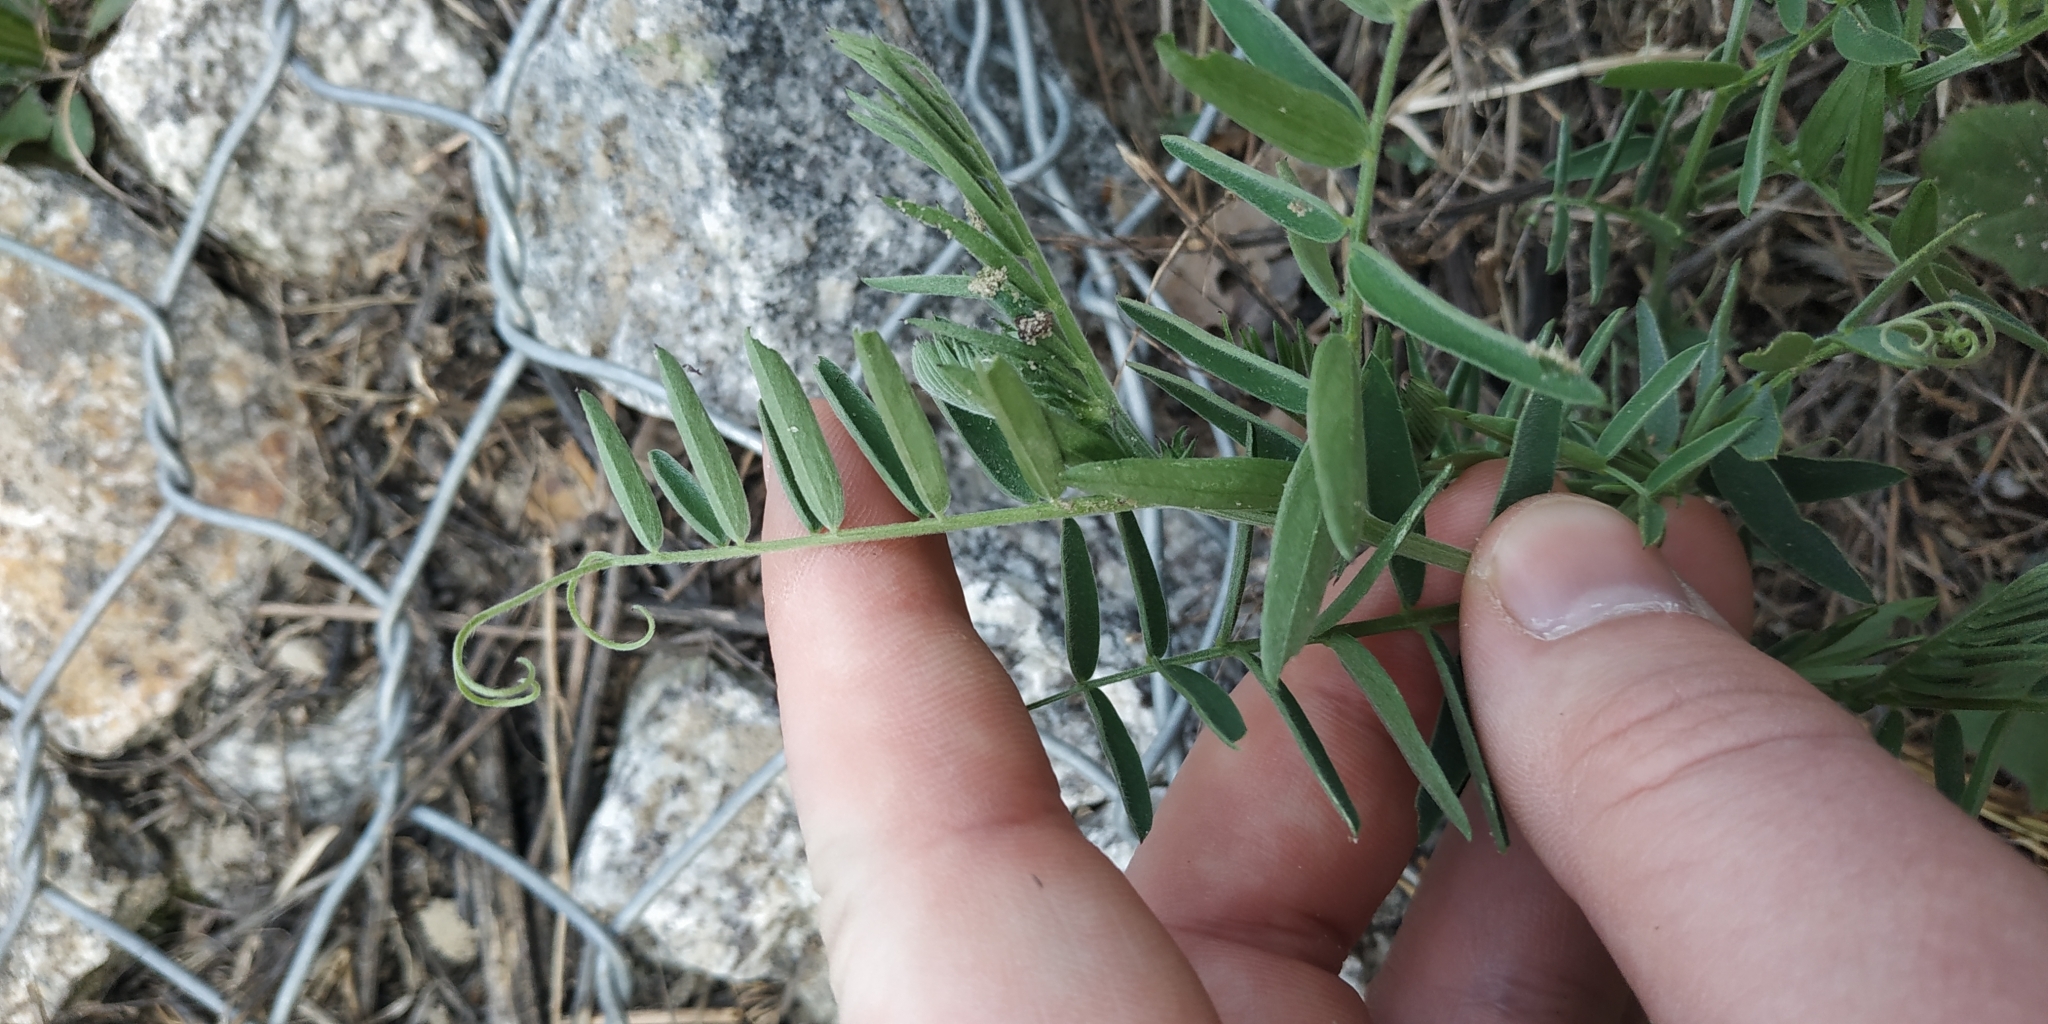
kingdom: Plantae
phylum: Tracheophyta
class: Magnoliopsida
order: Fabales
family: Fabaceae
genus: Vicia
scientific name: Vicia cracca
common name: Bird vetch
